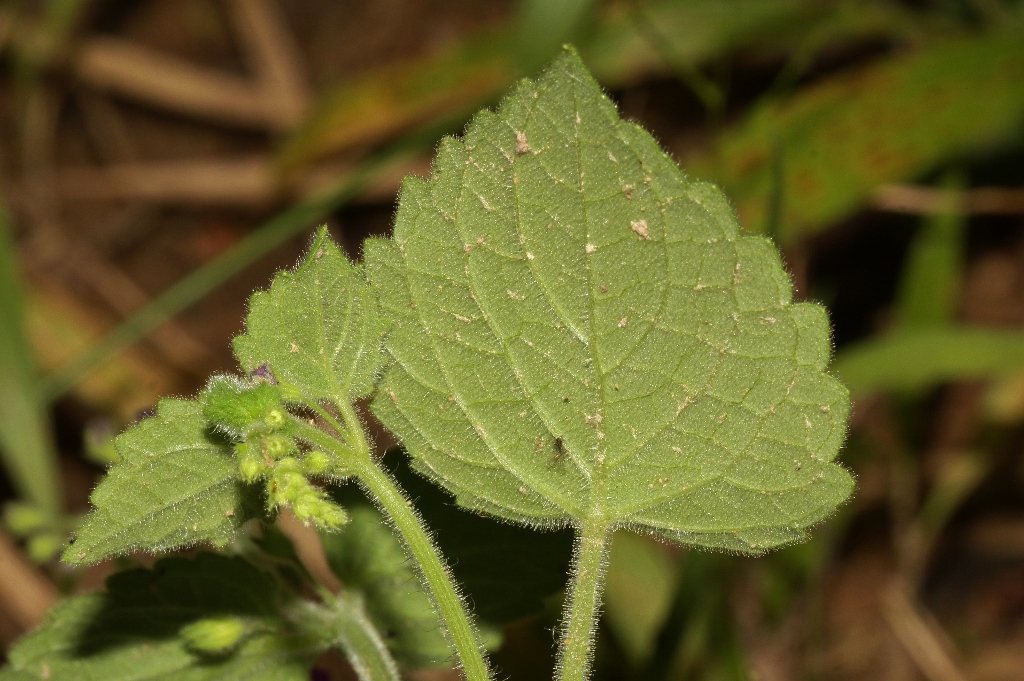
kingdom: Plantae
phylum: Tracheophyta
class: Magnoliopsida
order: Lamiales
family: Lamiaceae
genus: Equilabium
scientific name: Equilabium gracile
